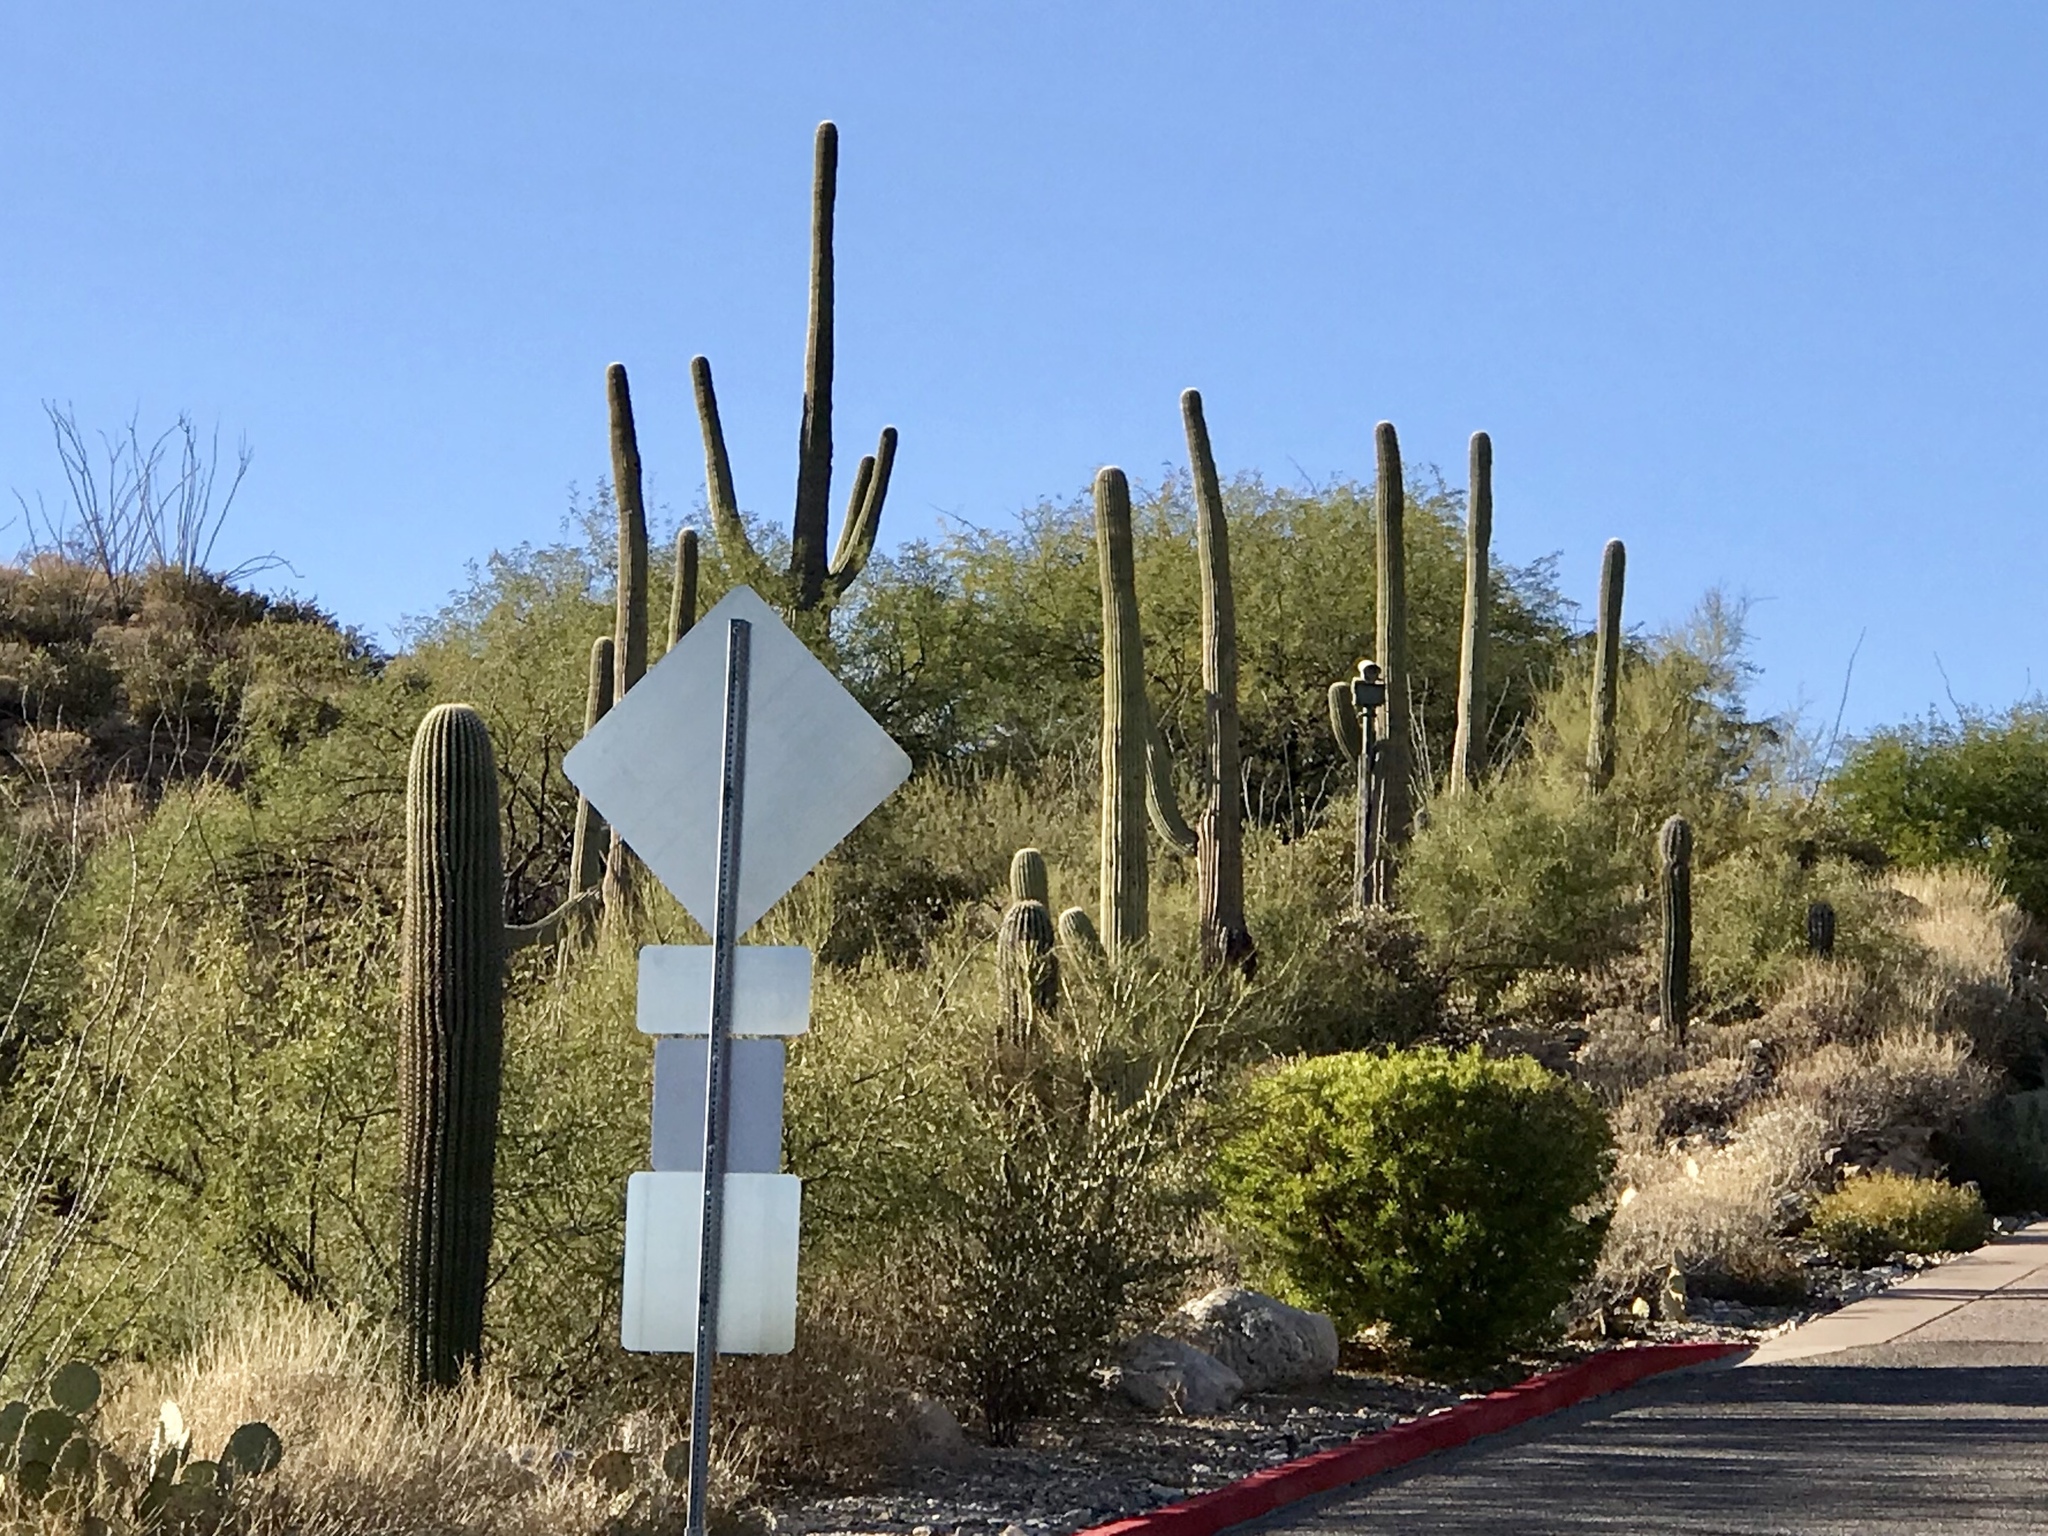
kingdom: Plantae
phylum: Tracheophyta
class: Magnoliopsida
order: Caryophyllales
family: Cactaceae
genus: Carnegiea
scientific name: Carnegiea gigantea
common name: Saguaro
